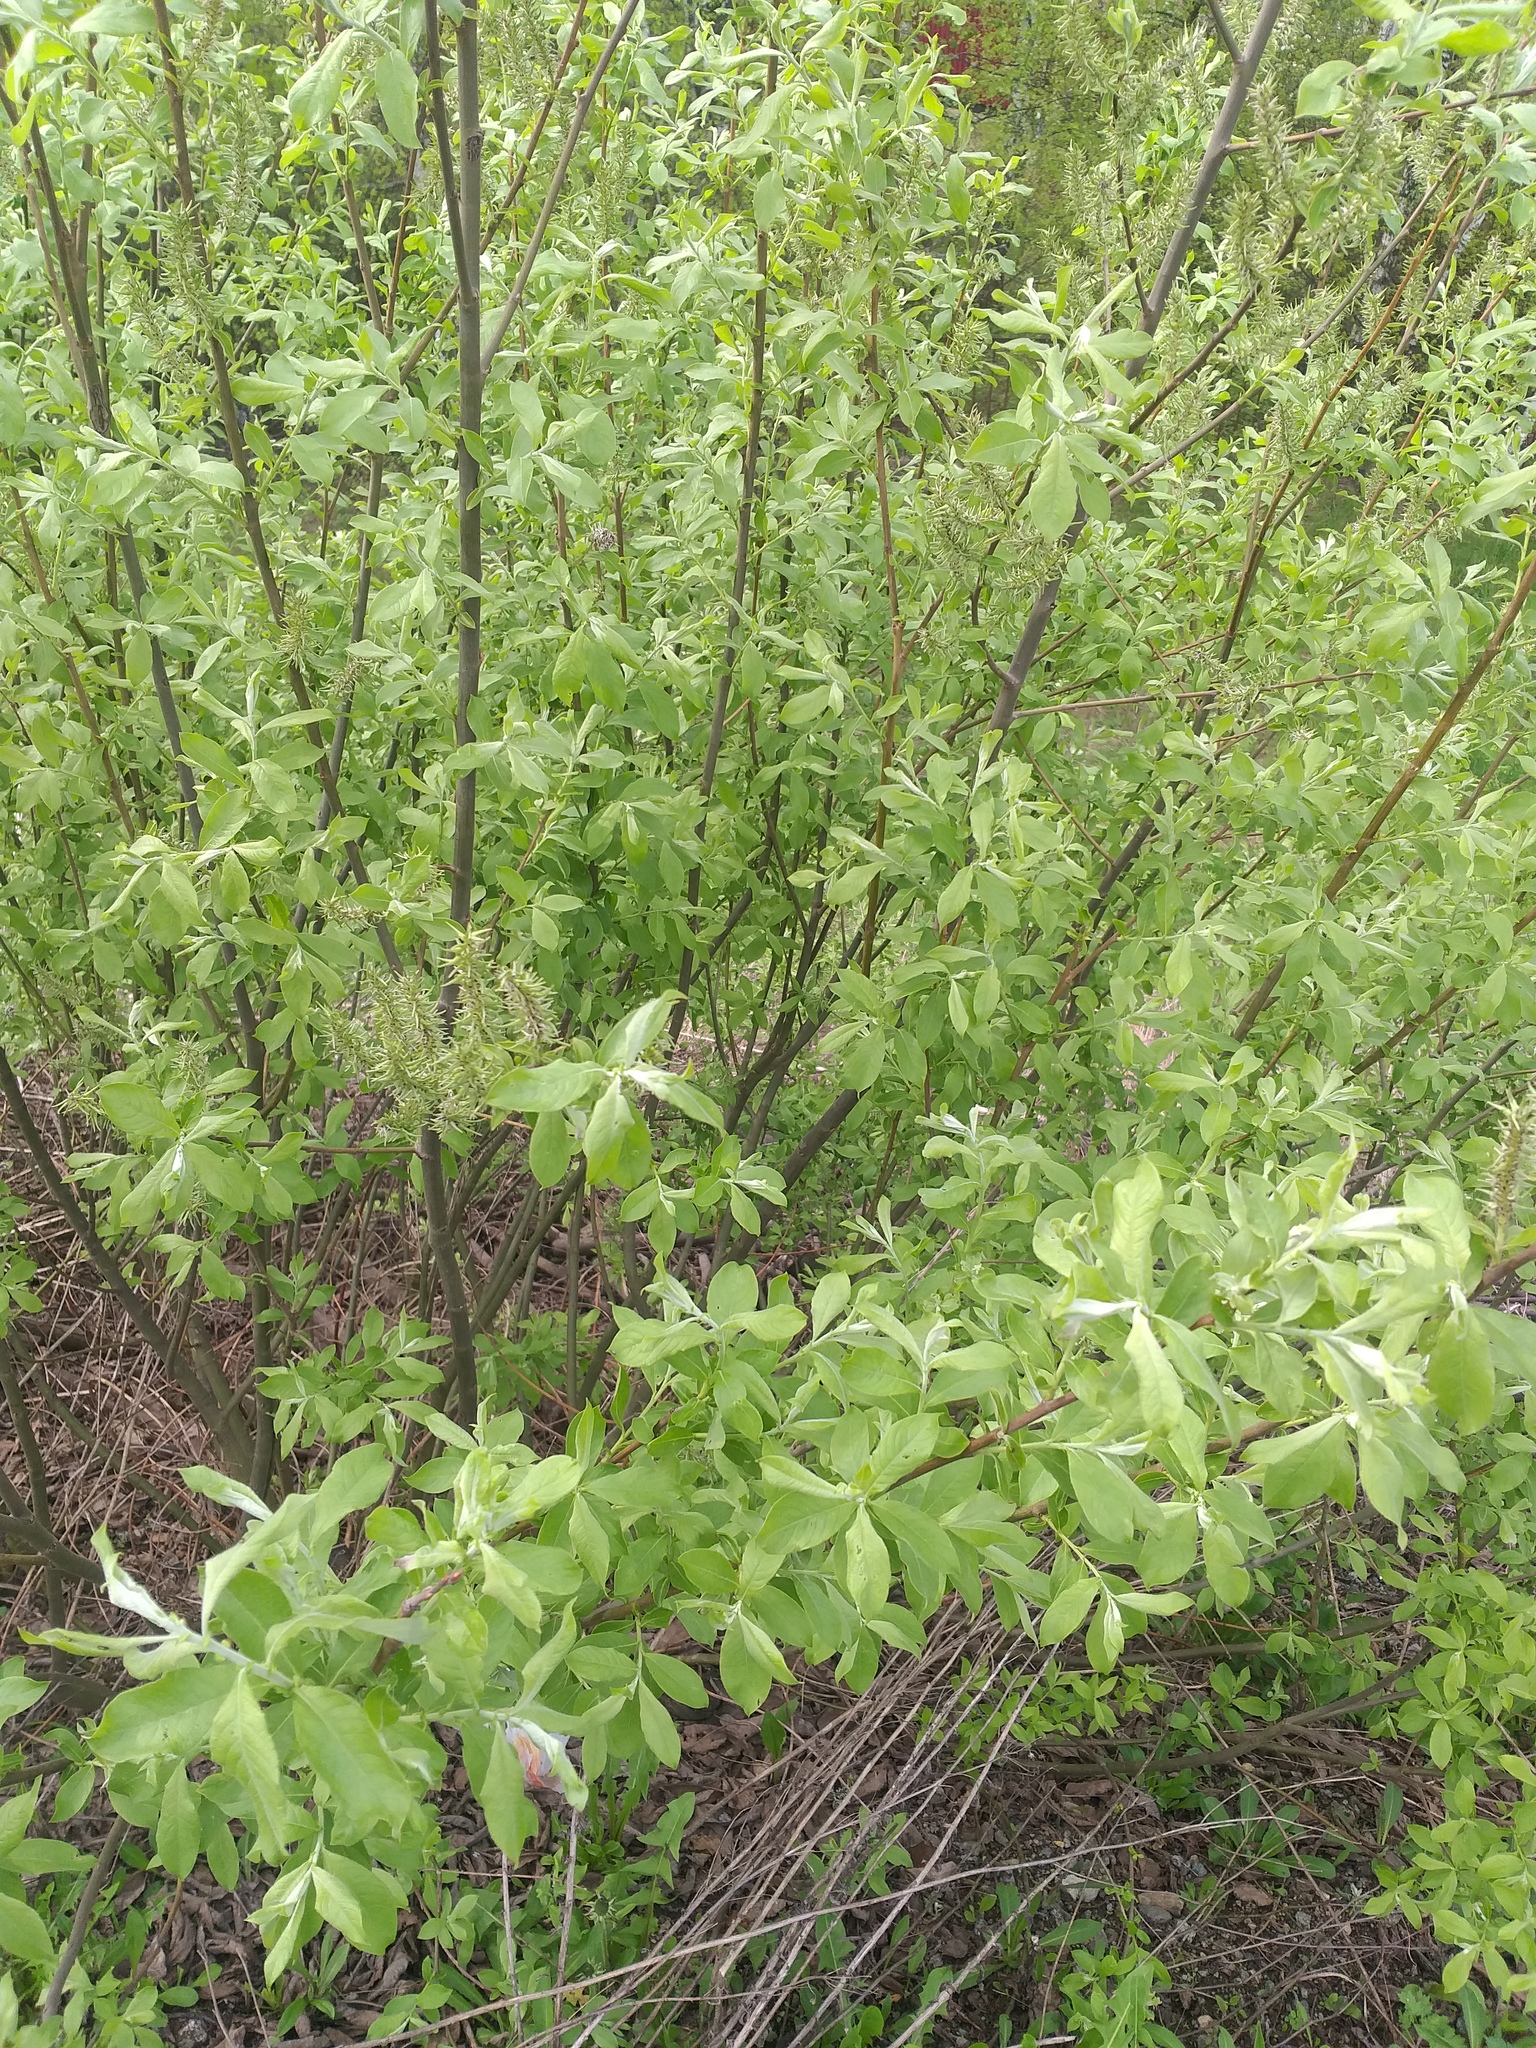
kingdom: Plantae
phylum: Tracheophyta
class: Magnoliopsida
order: Malpighiales
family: Salicaceae
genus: Salix
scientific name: Salix cinerea
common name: Common sallow
